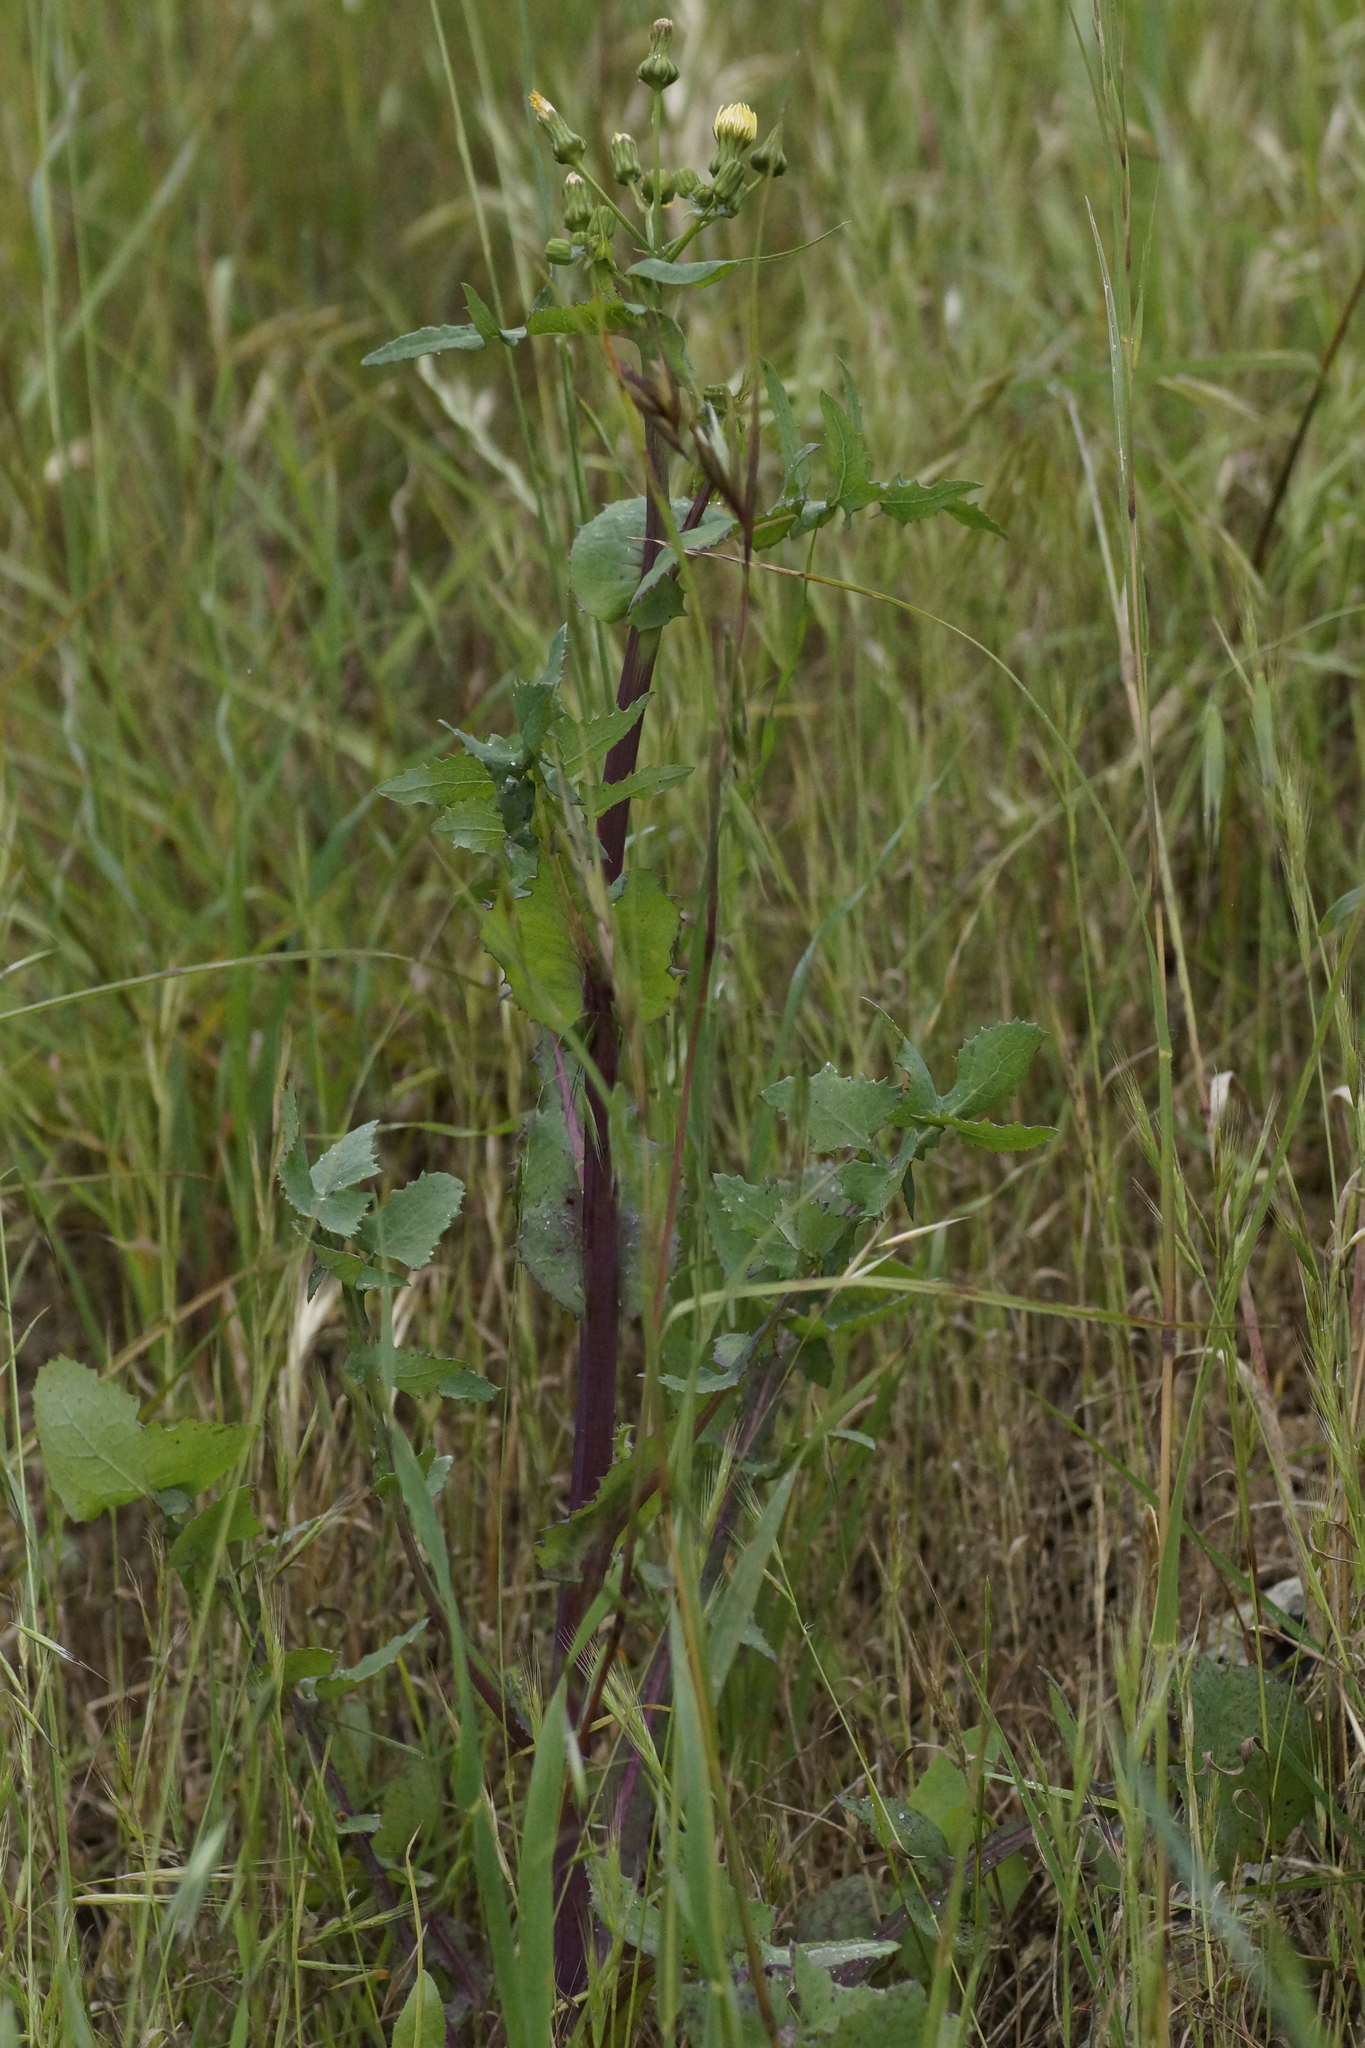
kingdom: Plantae
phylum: Tracheophyta
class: Magnoliopsida
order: Asterales
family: Asteraceae
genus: Sonchus
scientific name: Sonchus oleraceus
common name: Common sowthistle
